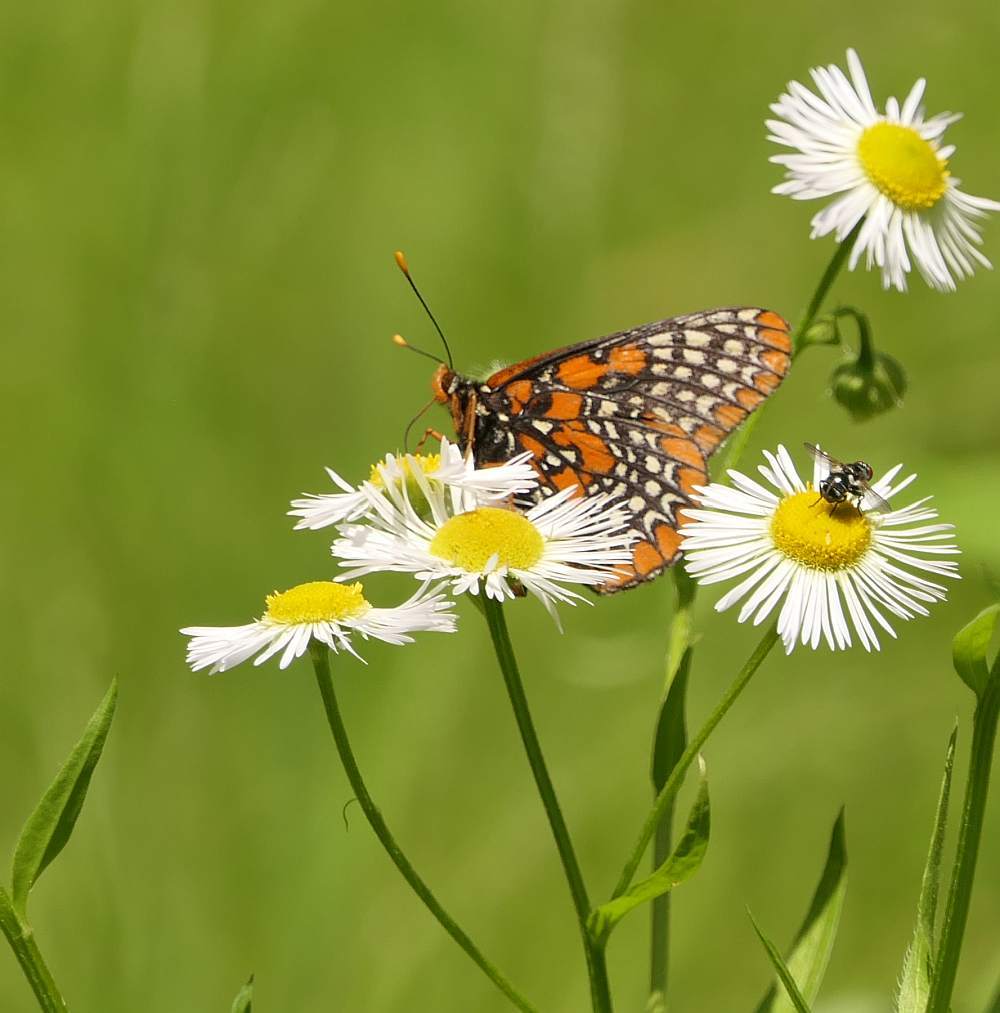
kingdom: Animalia
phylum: Arthropoda
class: Insecta
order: Lepidoptera
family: Nymphalidae
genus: Euphydryas
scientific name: Euphydryas phaeton
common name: Baltimore checkerspot
